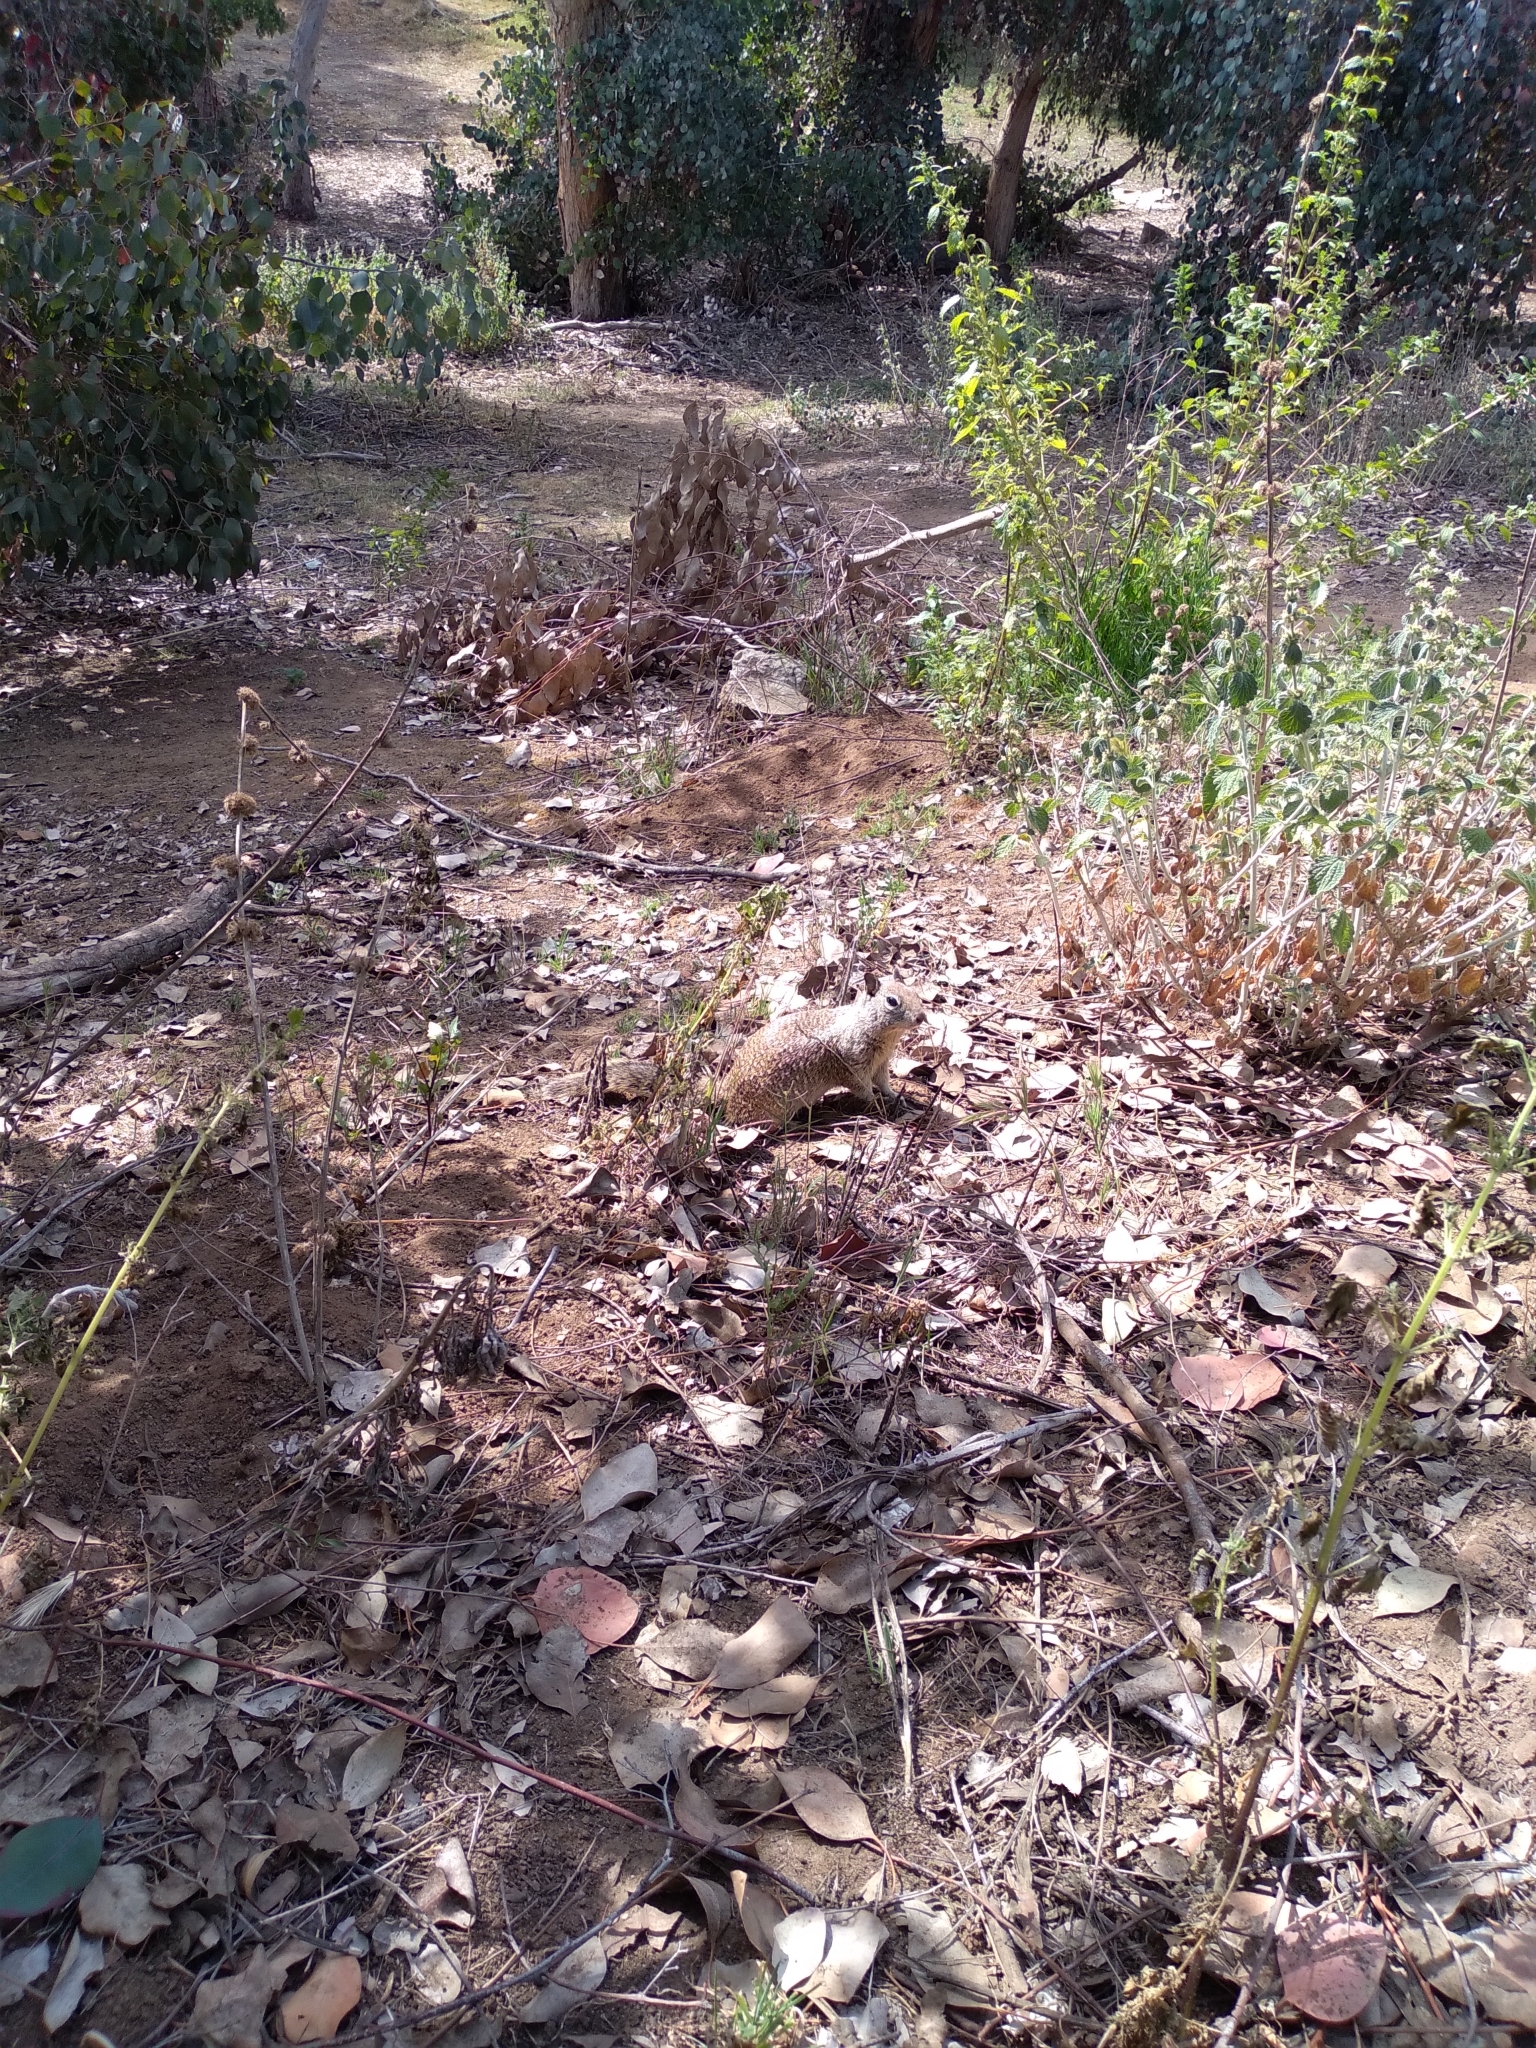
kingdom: Animalia
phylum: Chordata
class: Mammalia
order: Rodentia
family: Sciuridae
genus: Otospermophilus
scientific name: Otospermophilus beecheyi
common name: California ground squirrel
